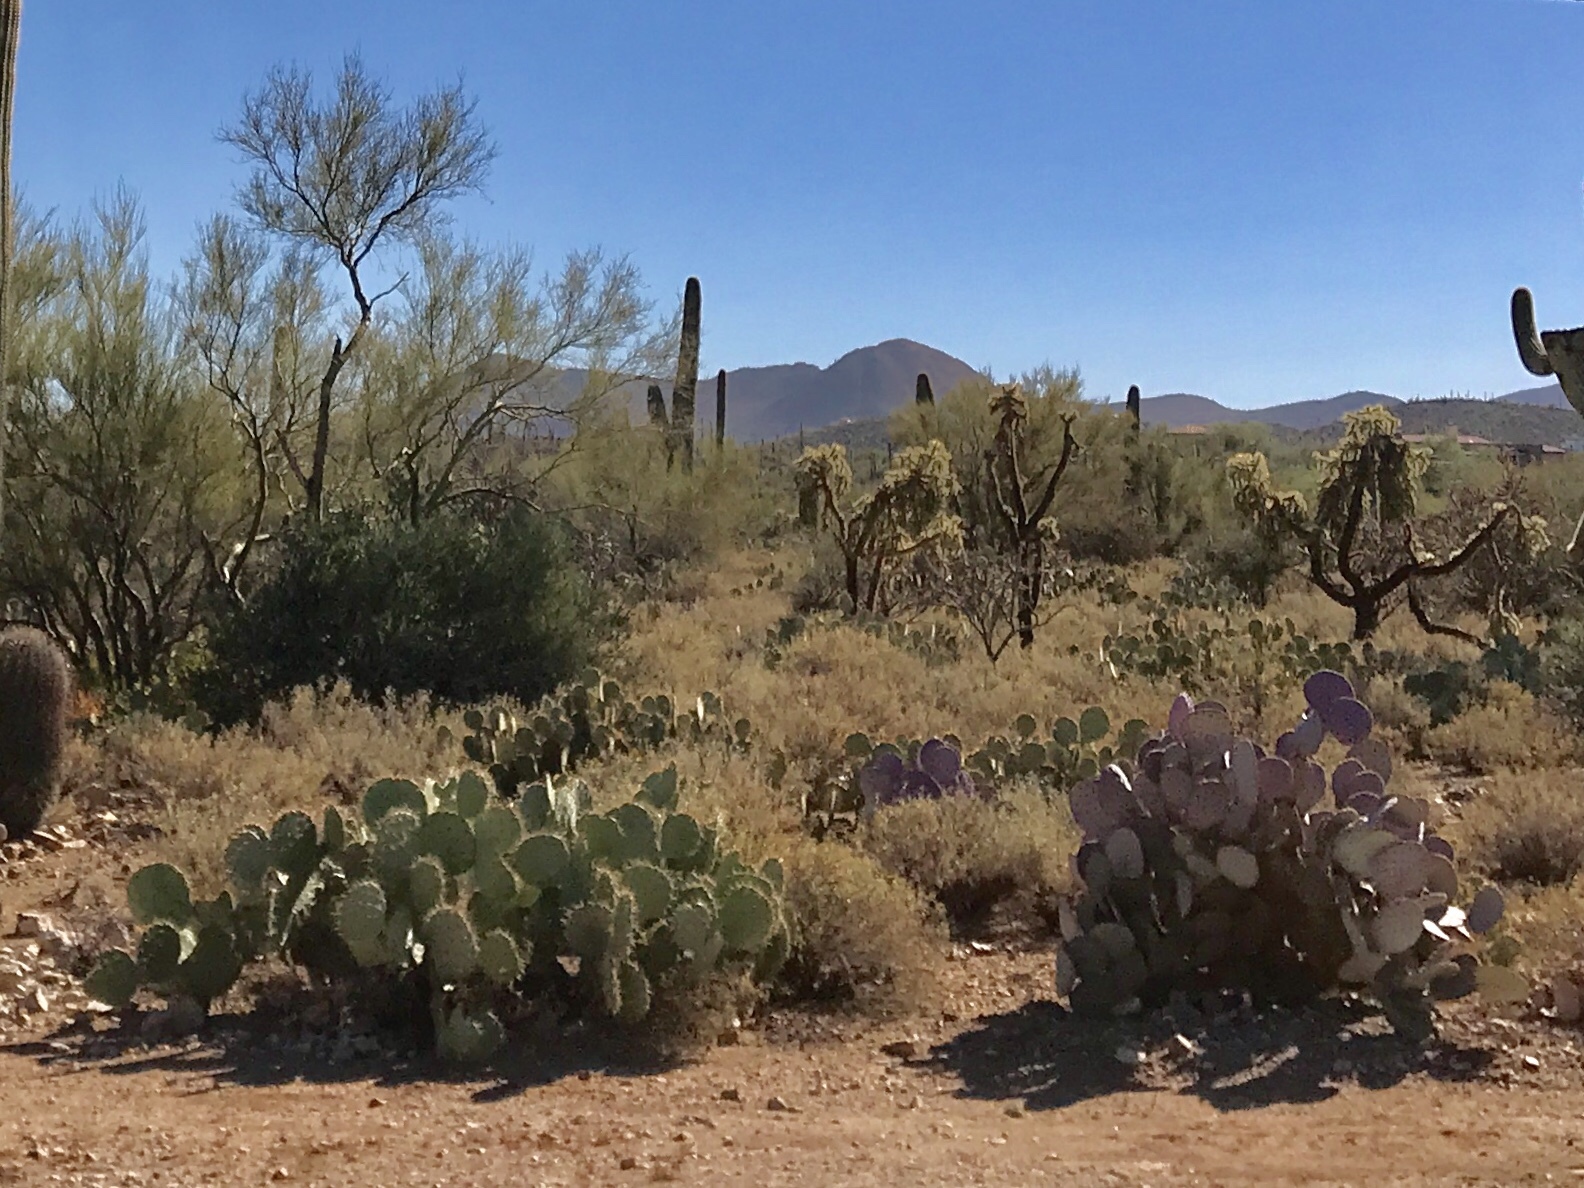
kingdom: Plantae
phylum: Tracheophyta
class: Magnoliopsida
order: Caryophyllales
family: Cactaceae
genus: Opuntia
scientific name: Opuntia gosseliniana
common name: Violet prickly-pear
